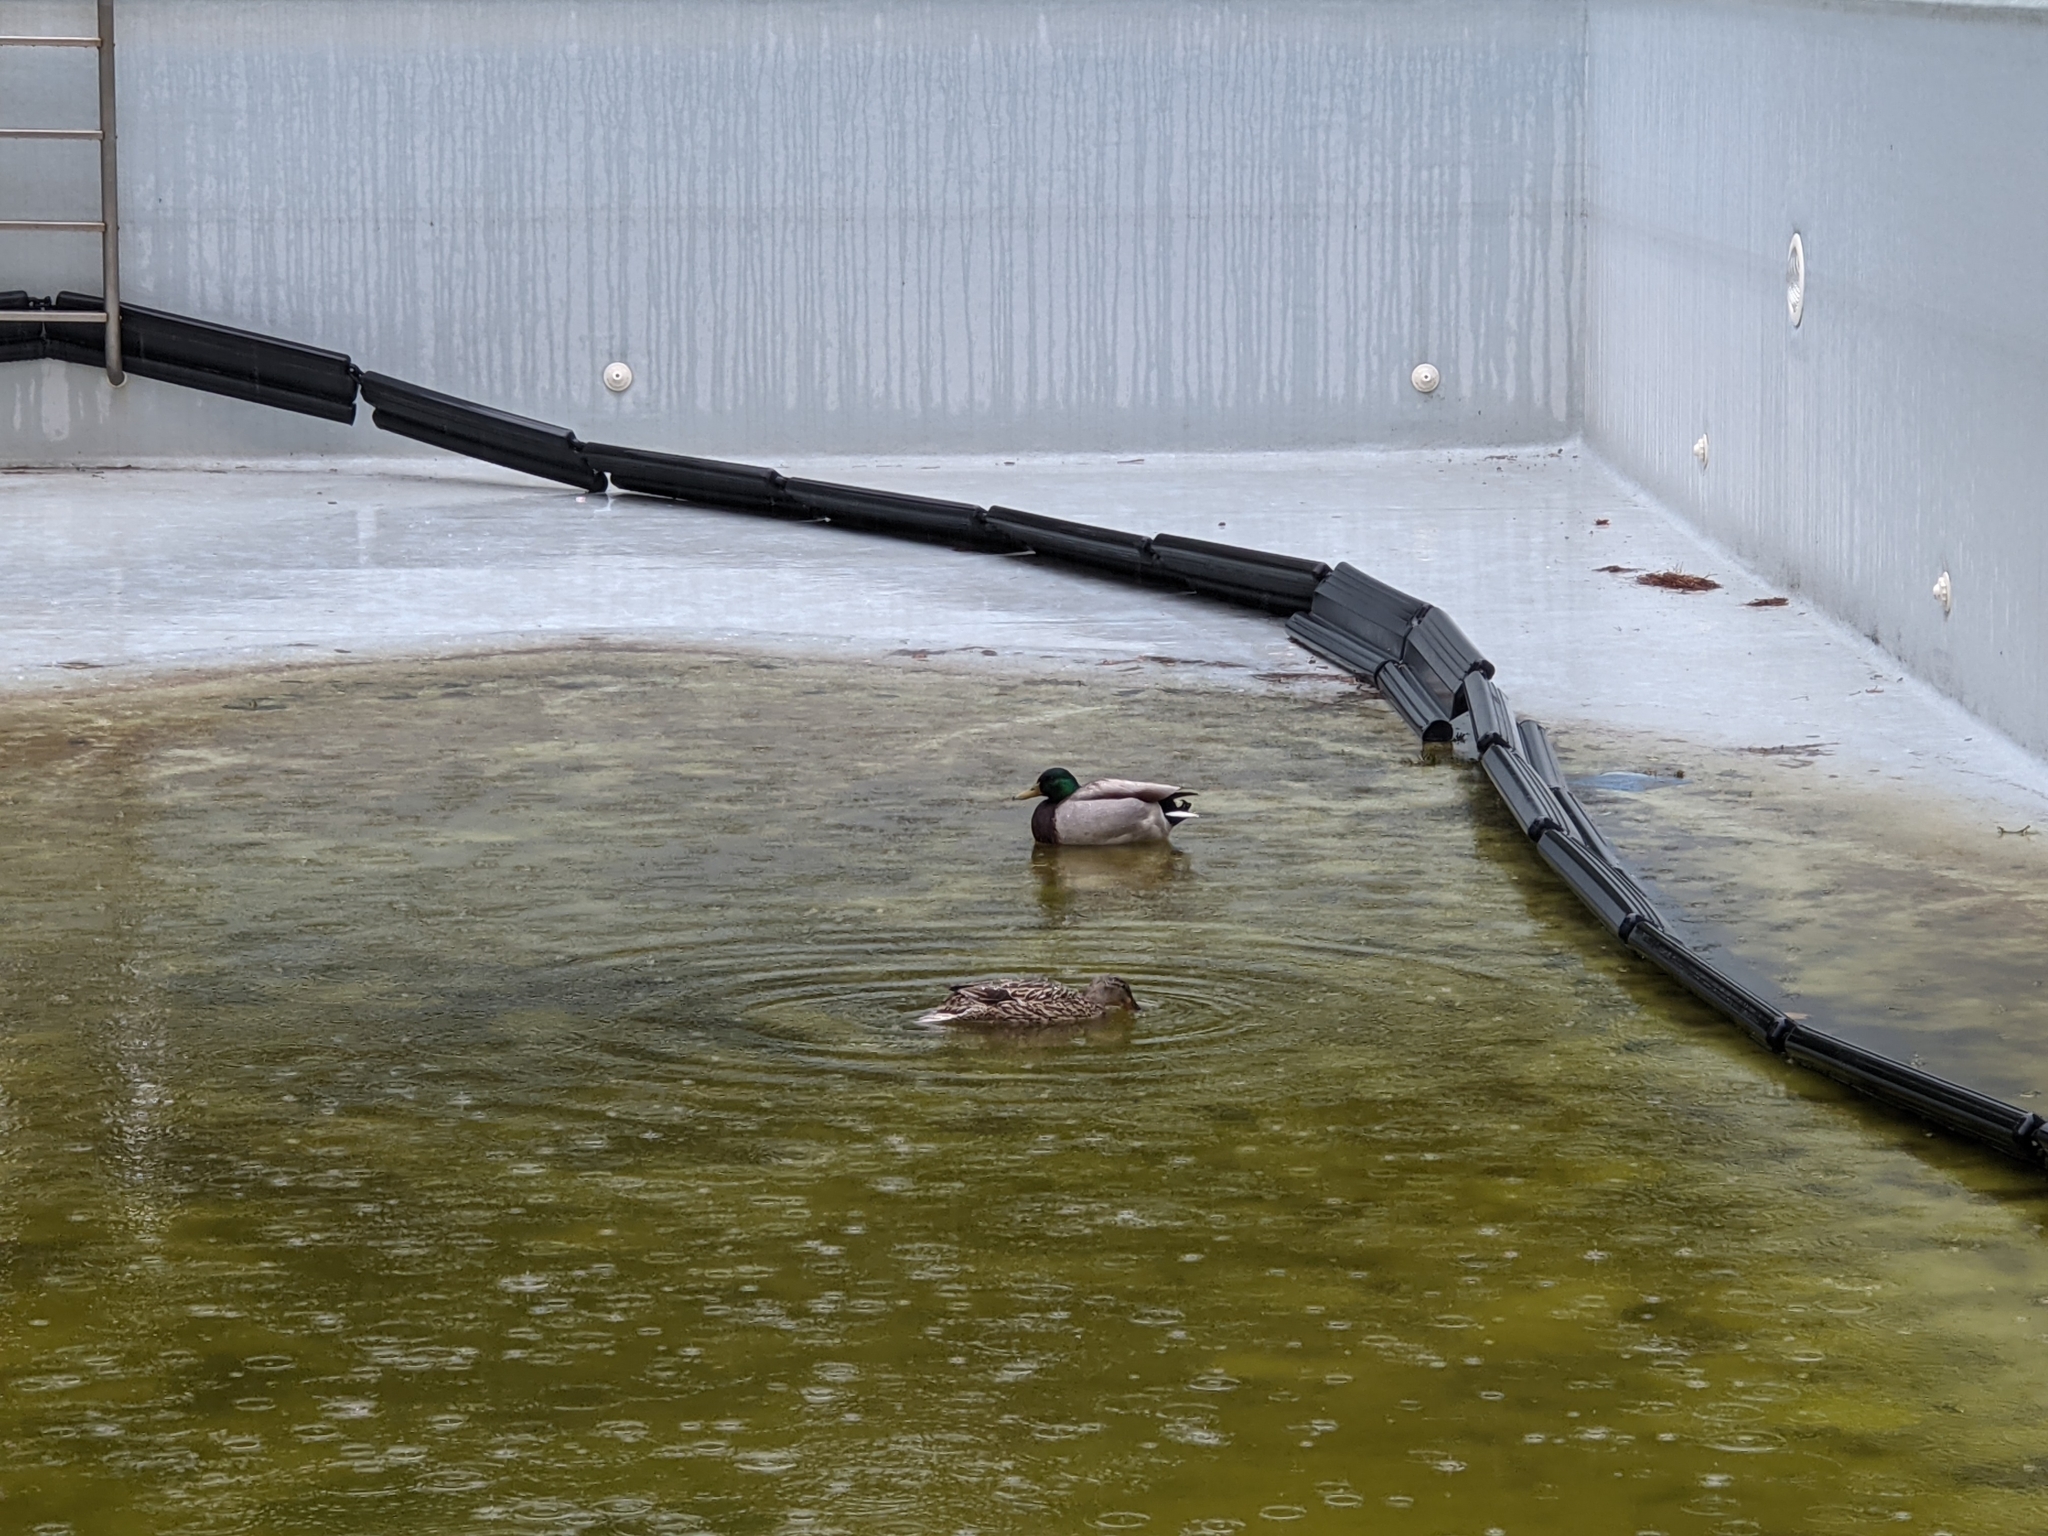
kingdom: Animalia
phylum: Chordata
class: Aves
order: Anseriformes
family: Anatidae
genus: Anas
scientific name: Anas platyrhynchos
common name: Mallard
